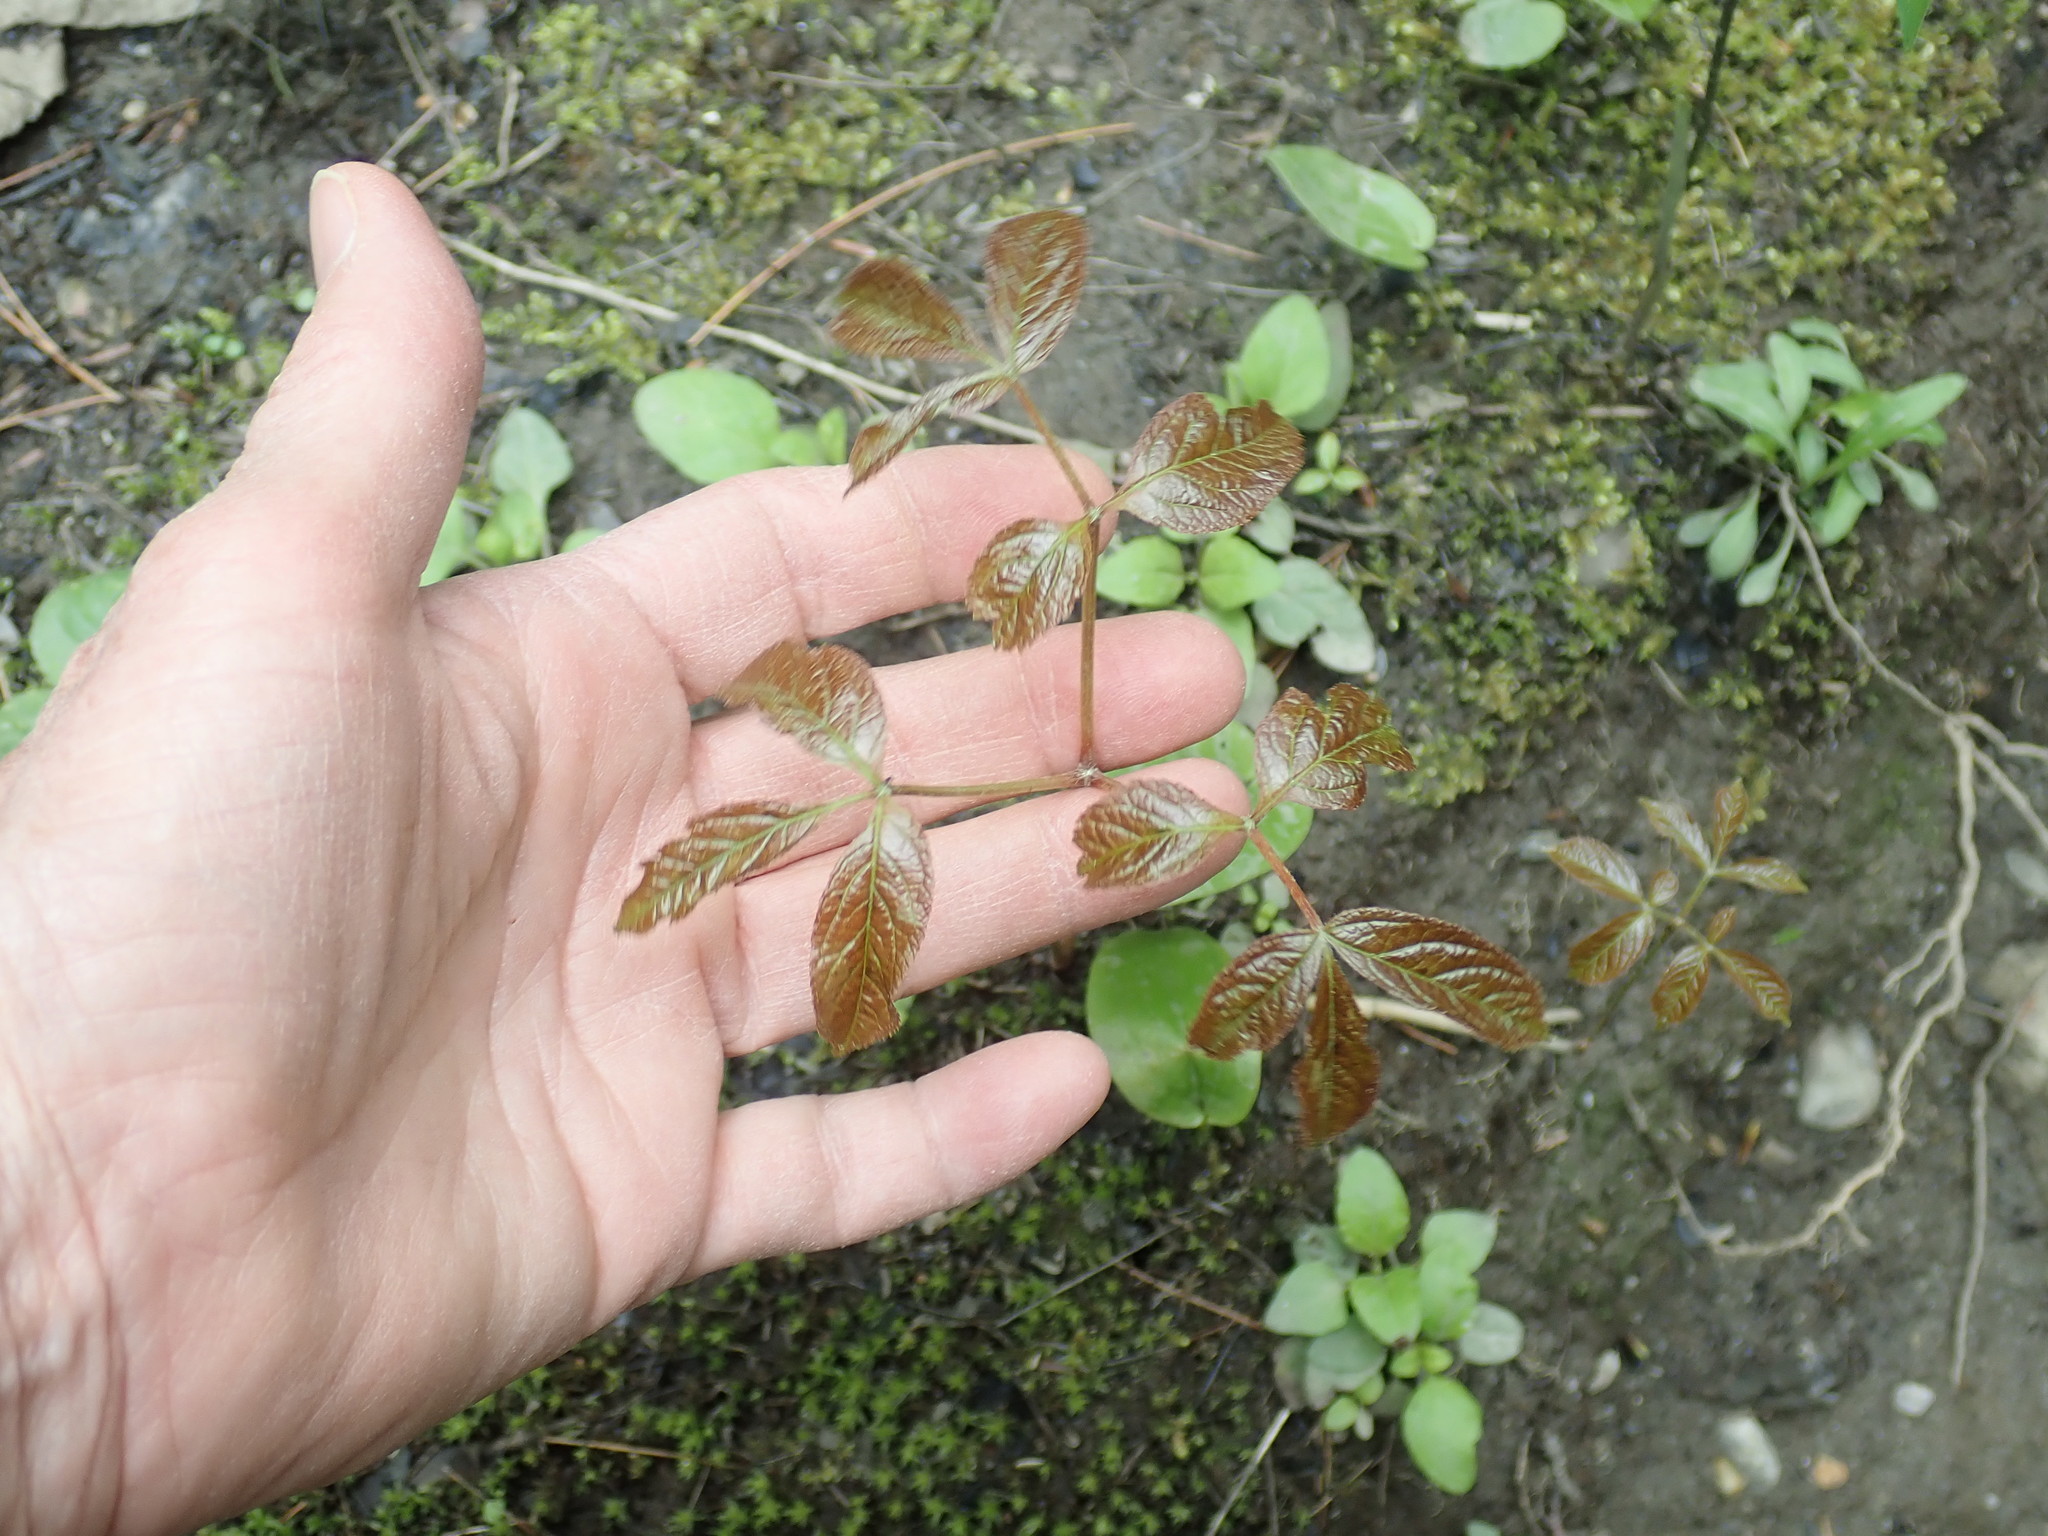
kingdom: Plantae
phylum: Tracheophyta
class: Magnoliopsida
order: Apiales
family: Araliaceae
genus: Aralia
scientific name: Aralia nudicaulis
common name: Wild sarsaparilla
